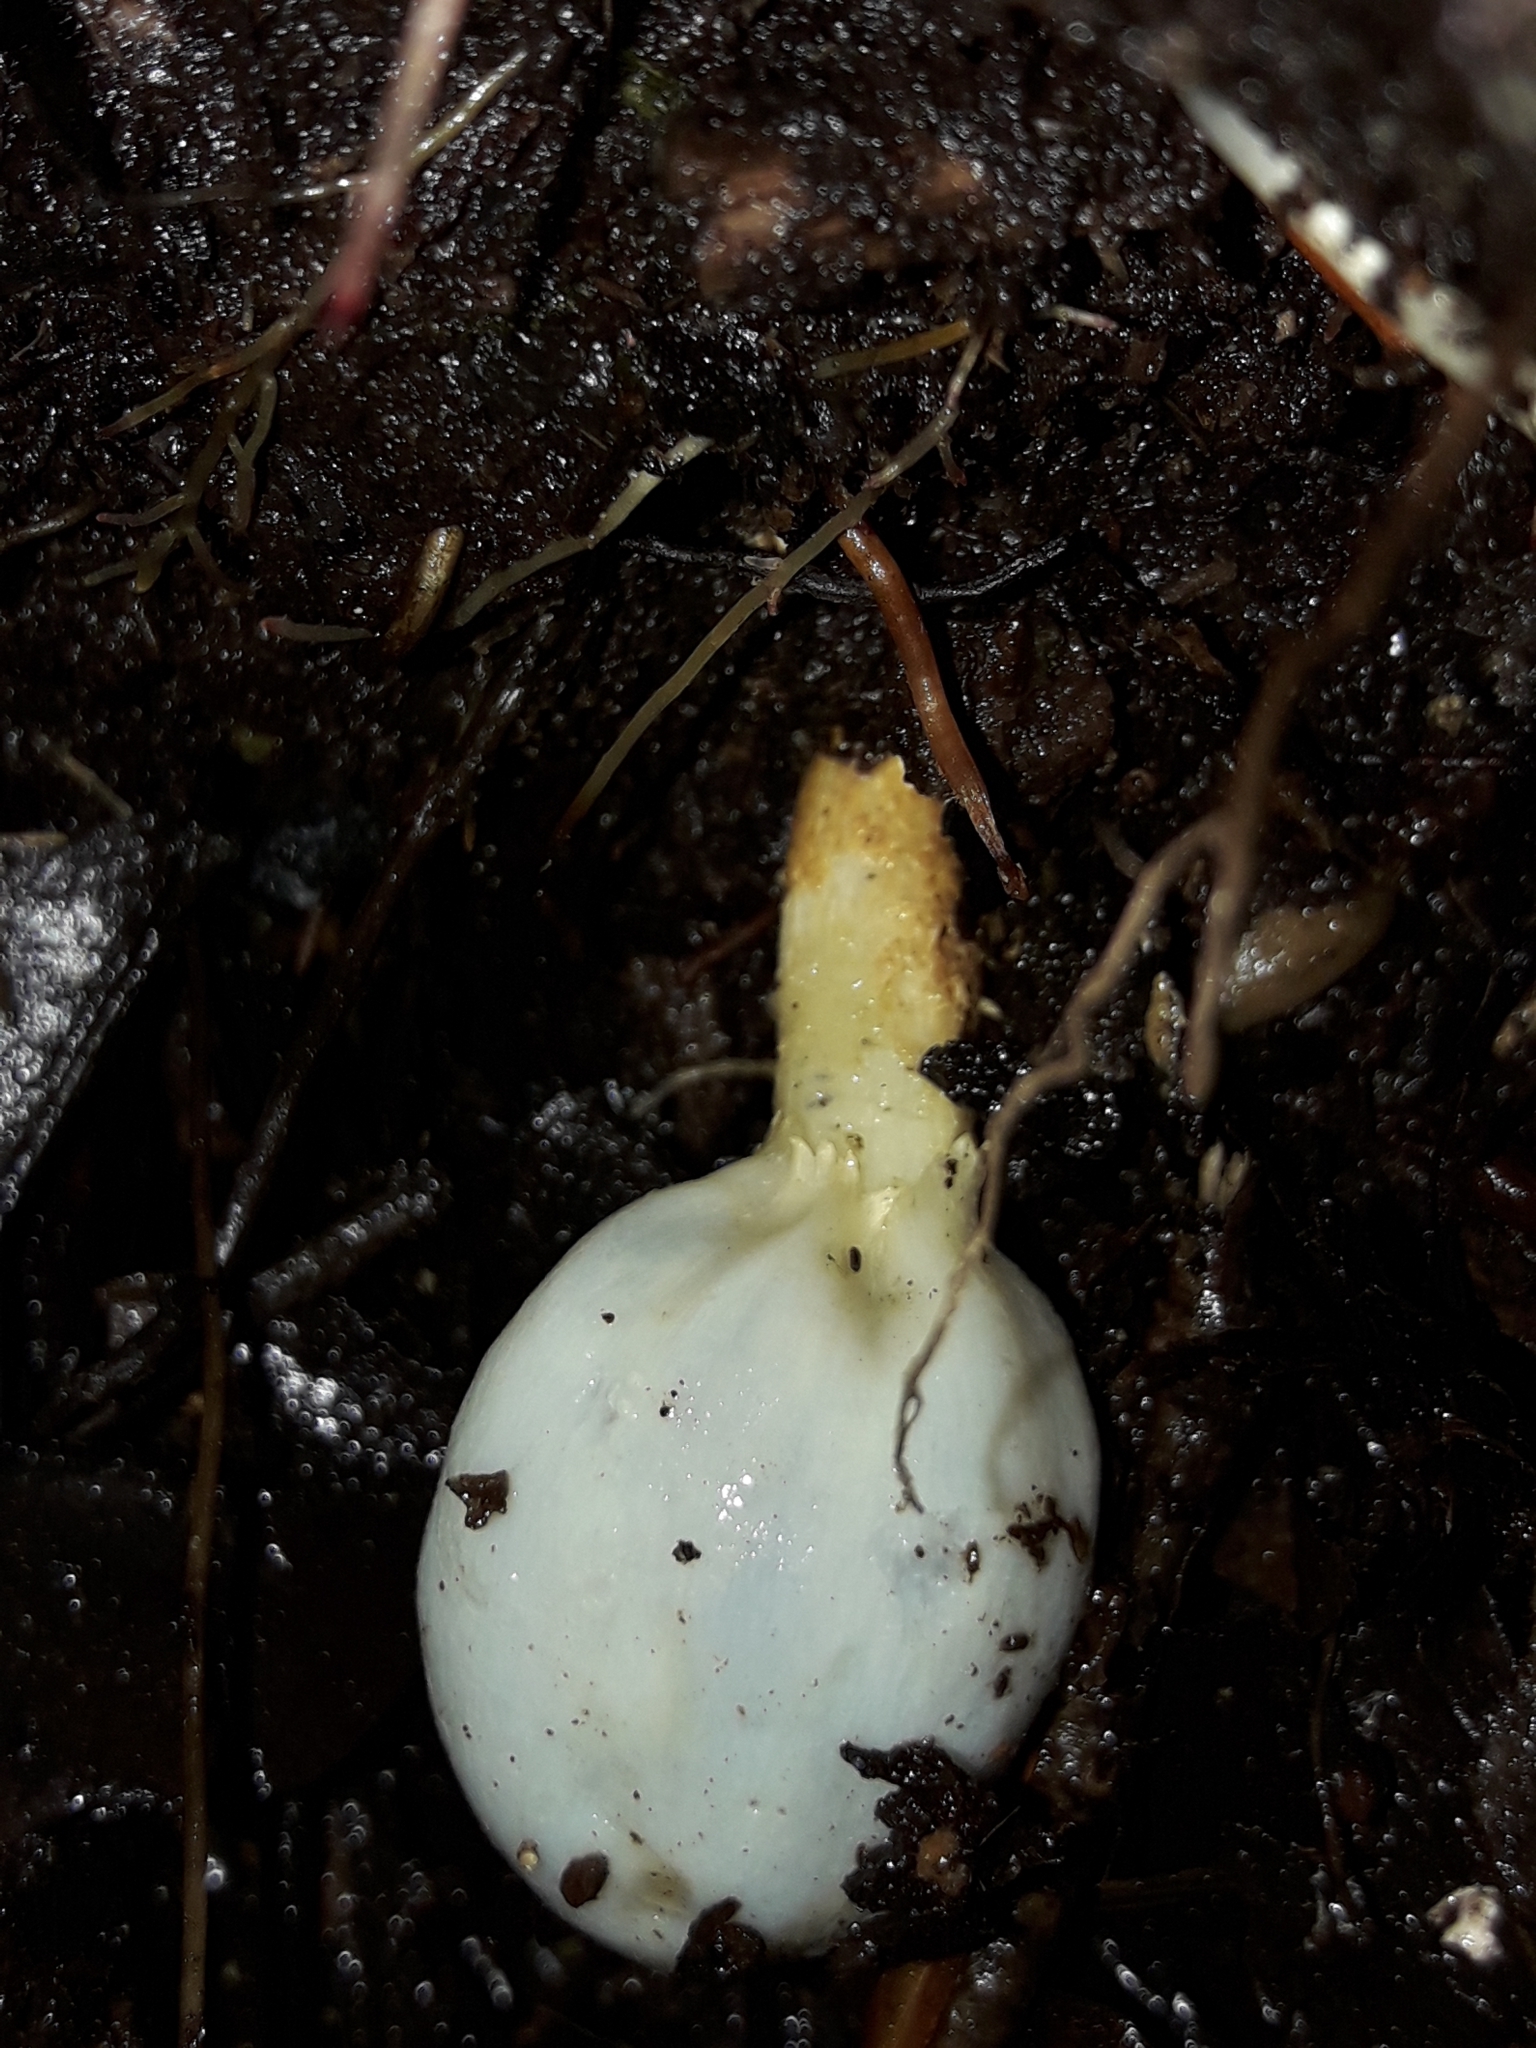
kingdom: Fungi
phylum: Basidiomycota
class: Agaricomycetes
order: Agaricales
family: Agaricaceae
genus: Clavogaster
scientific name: Clavogaster virescens
